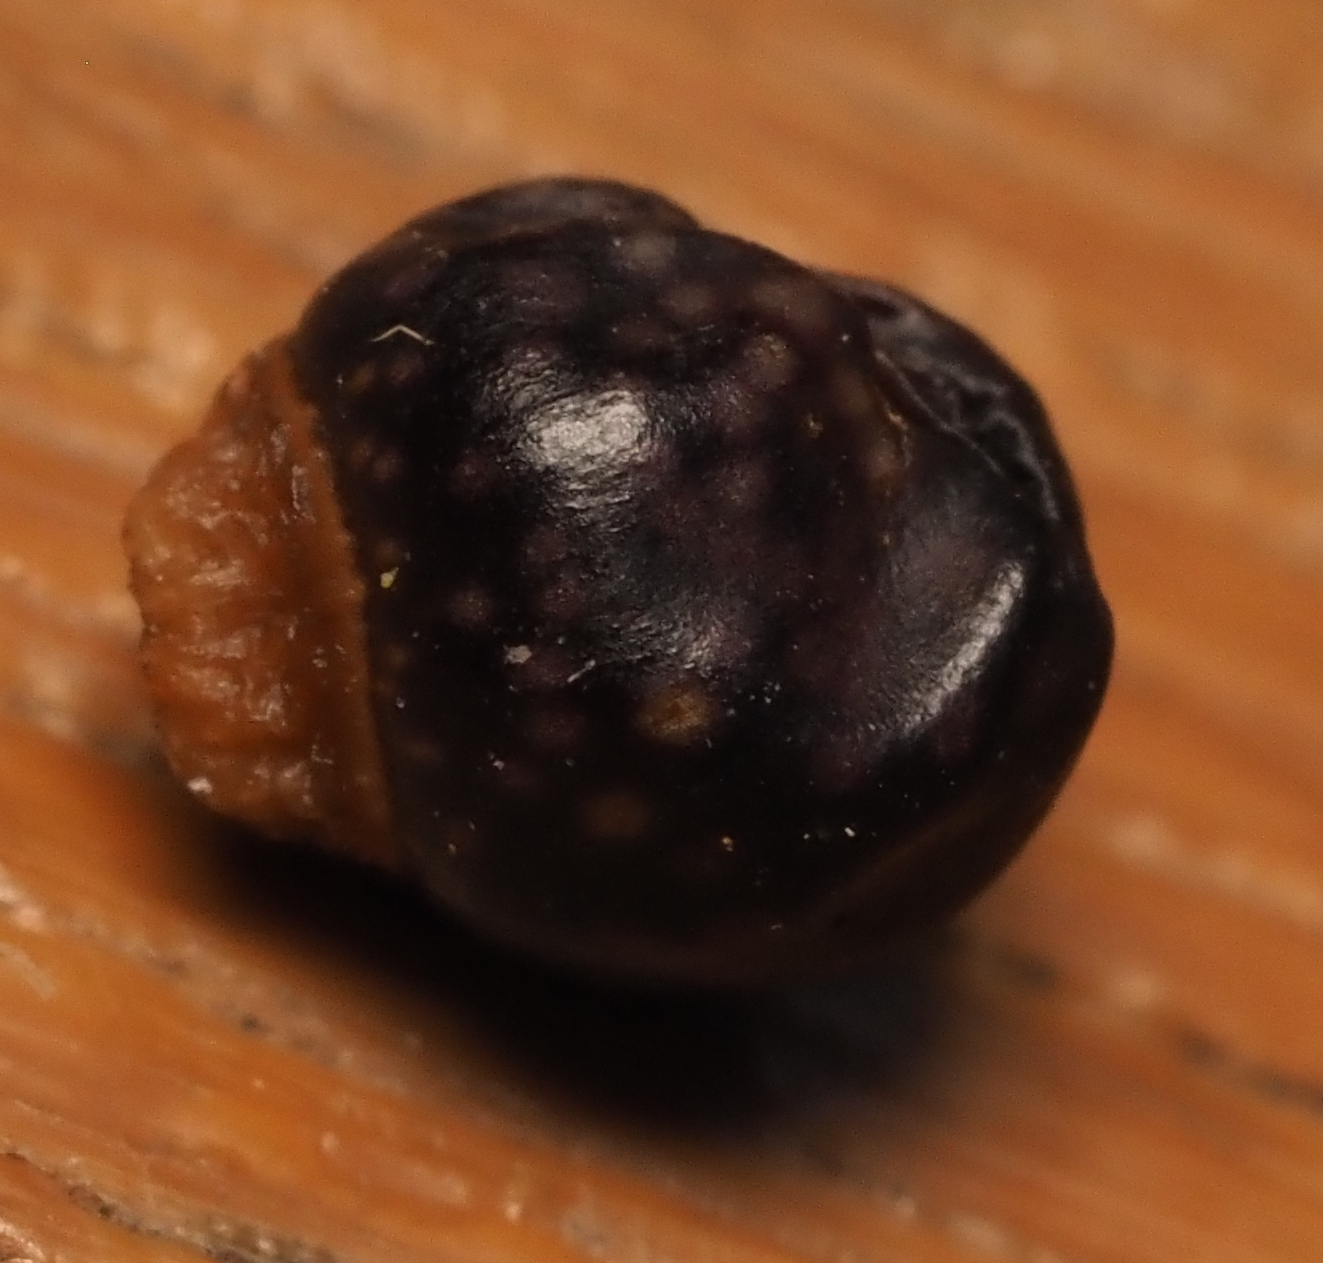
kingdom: Animalia
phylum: Arthropoda
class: Insecta
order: Hymenoptera
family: Cynipidae
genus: Kokkocynips
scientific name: Kokkocynips rileyi
